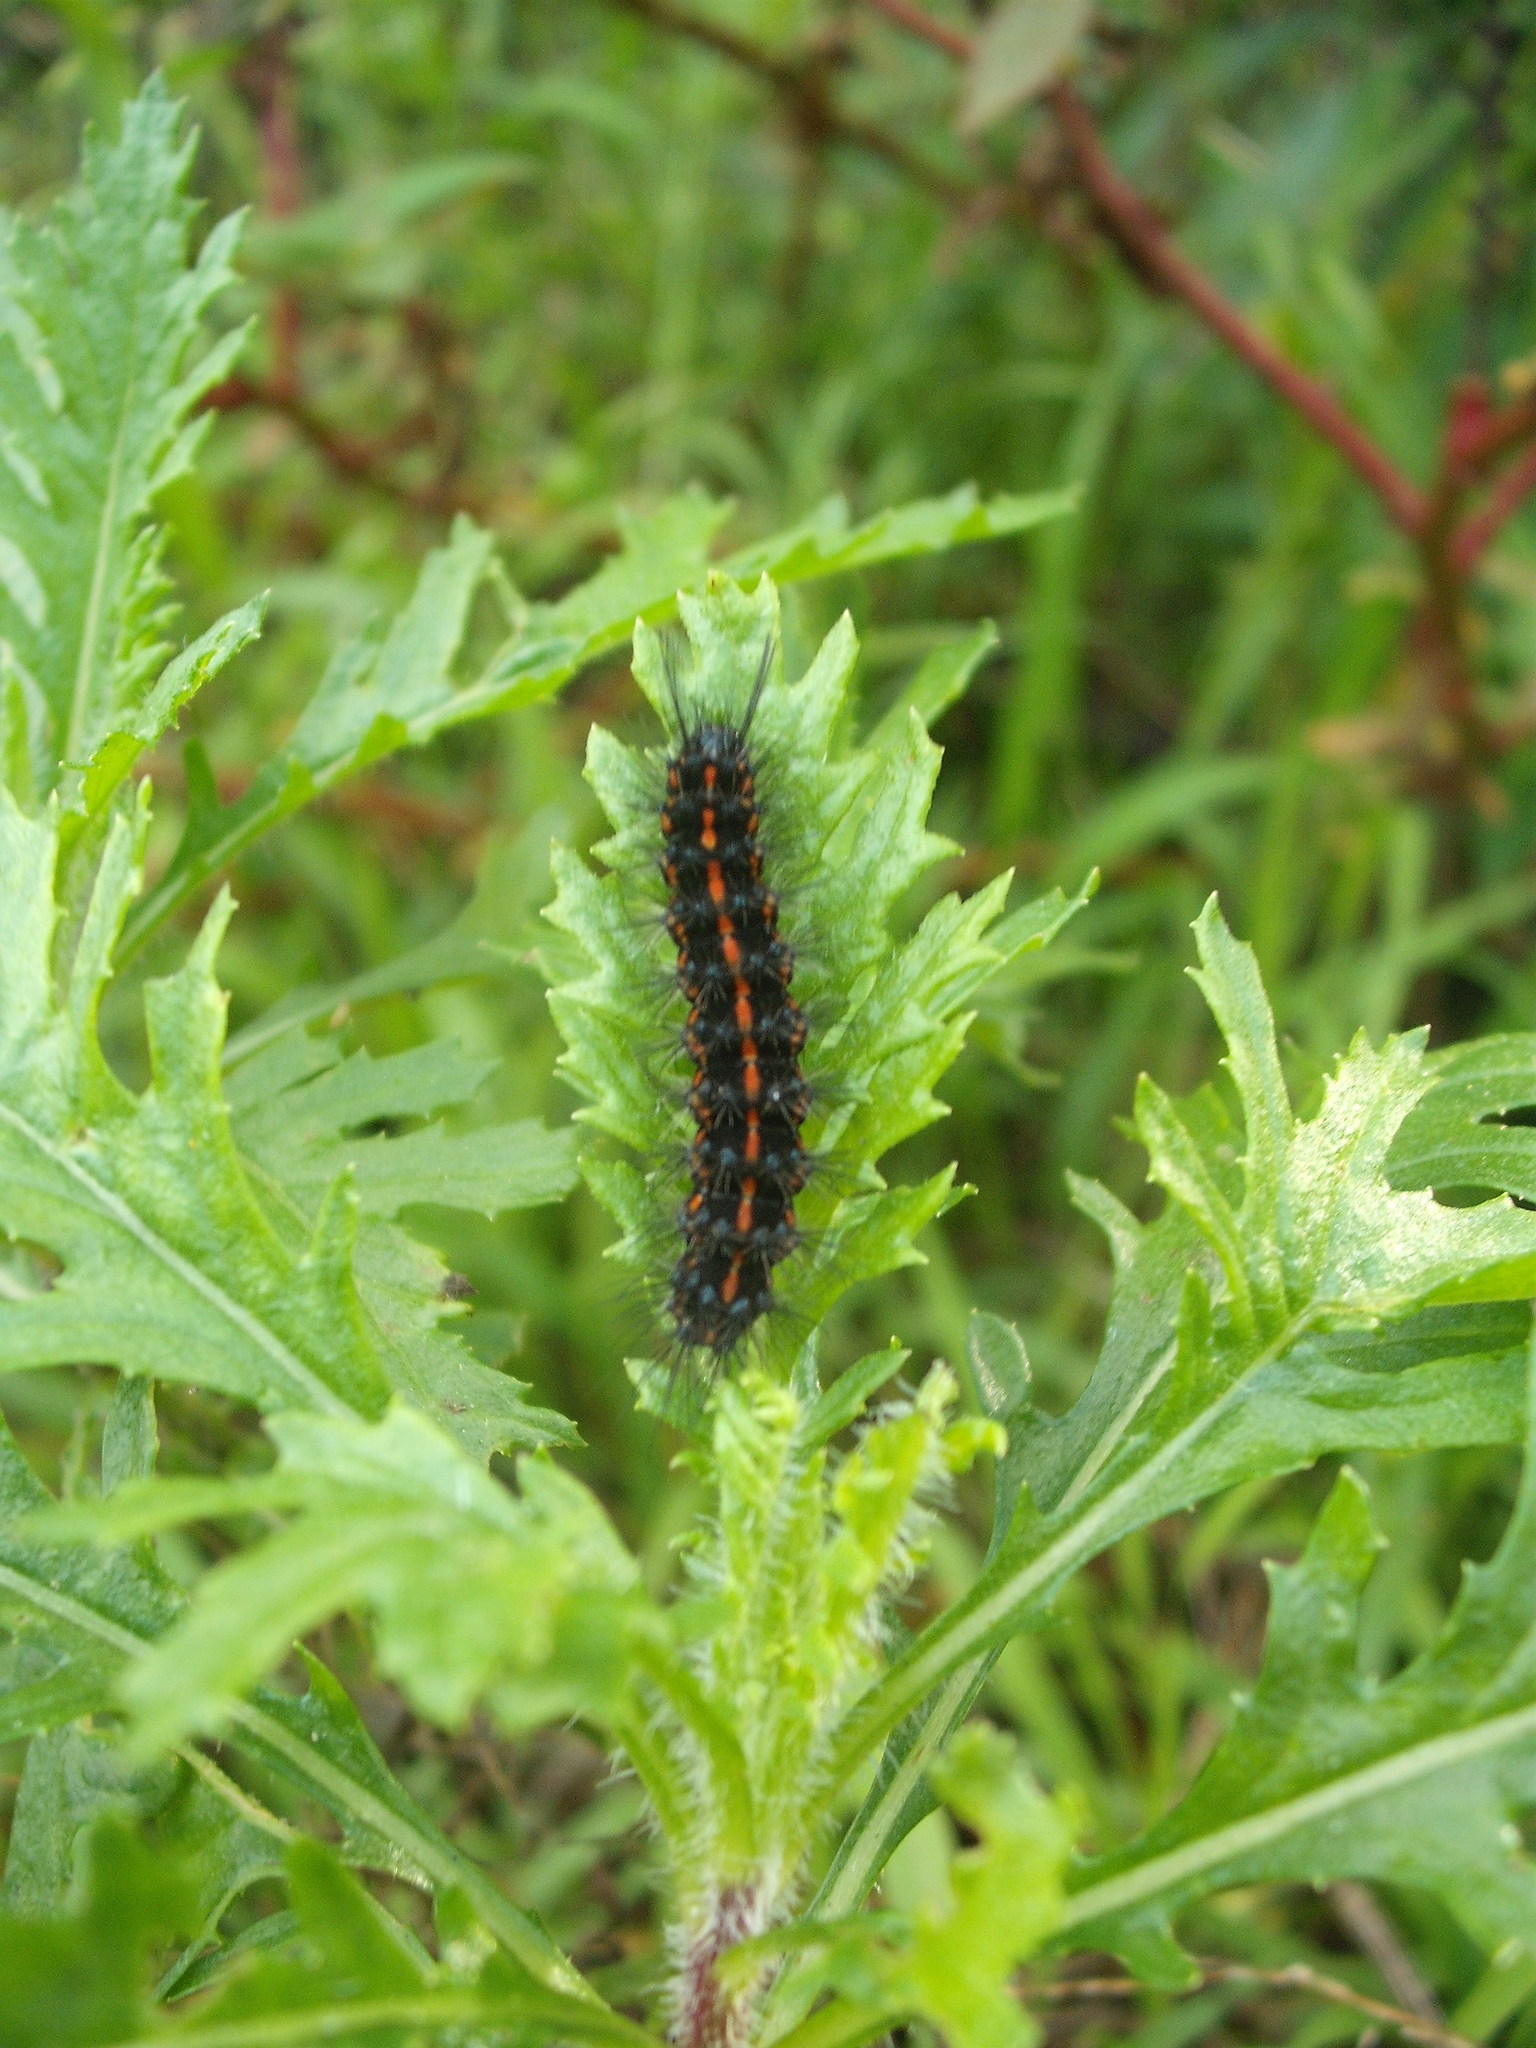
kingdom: Animalia
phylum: Arthropoda
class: Insecta
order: Lepidoptera
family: Erebidae
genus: Nyctemera
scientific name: Nyctemera amicus
